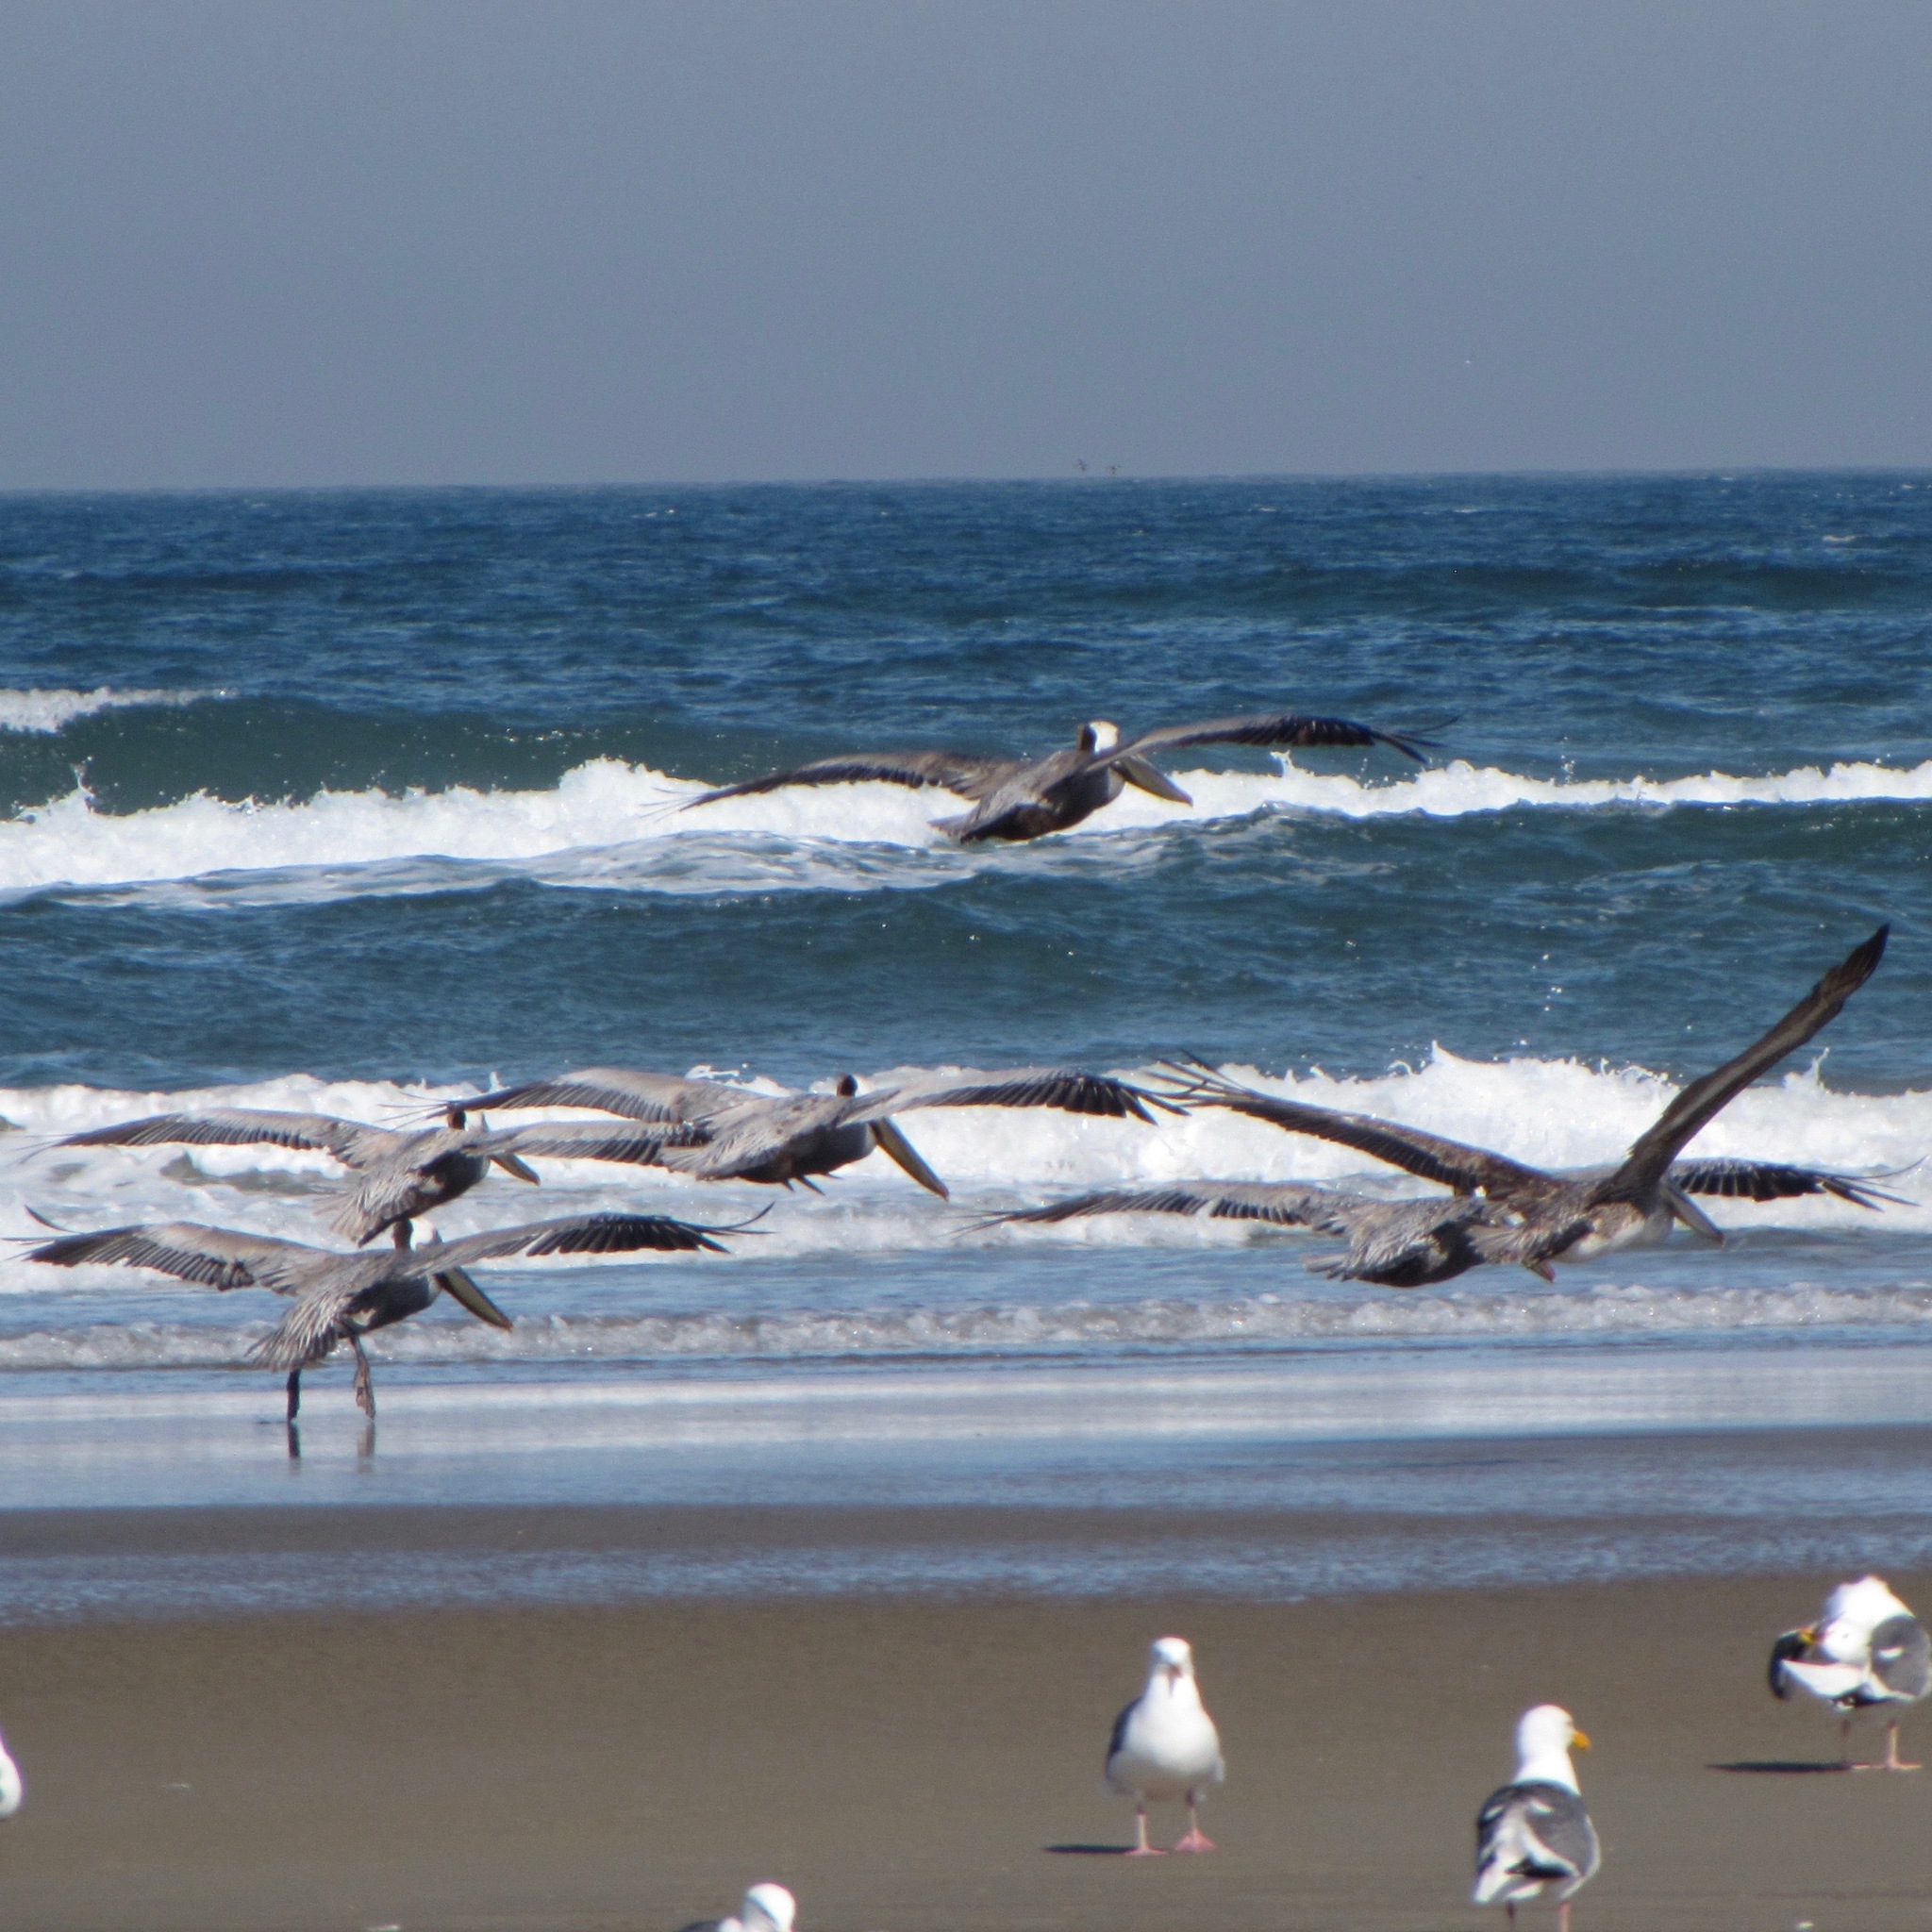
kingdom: Animalia
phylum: Chordata
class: Aves
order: Pelecaniformes
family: Pelecanidae
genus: Pelecanus
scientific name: Pelecanus occidentalis
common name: Brown pelican
